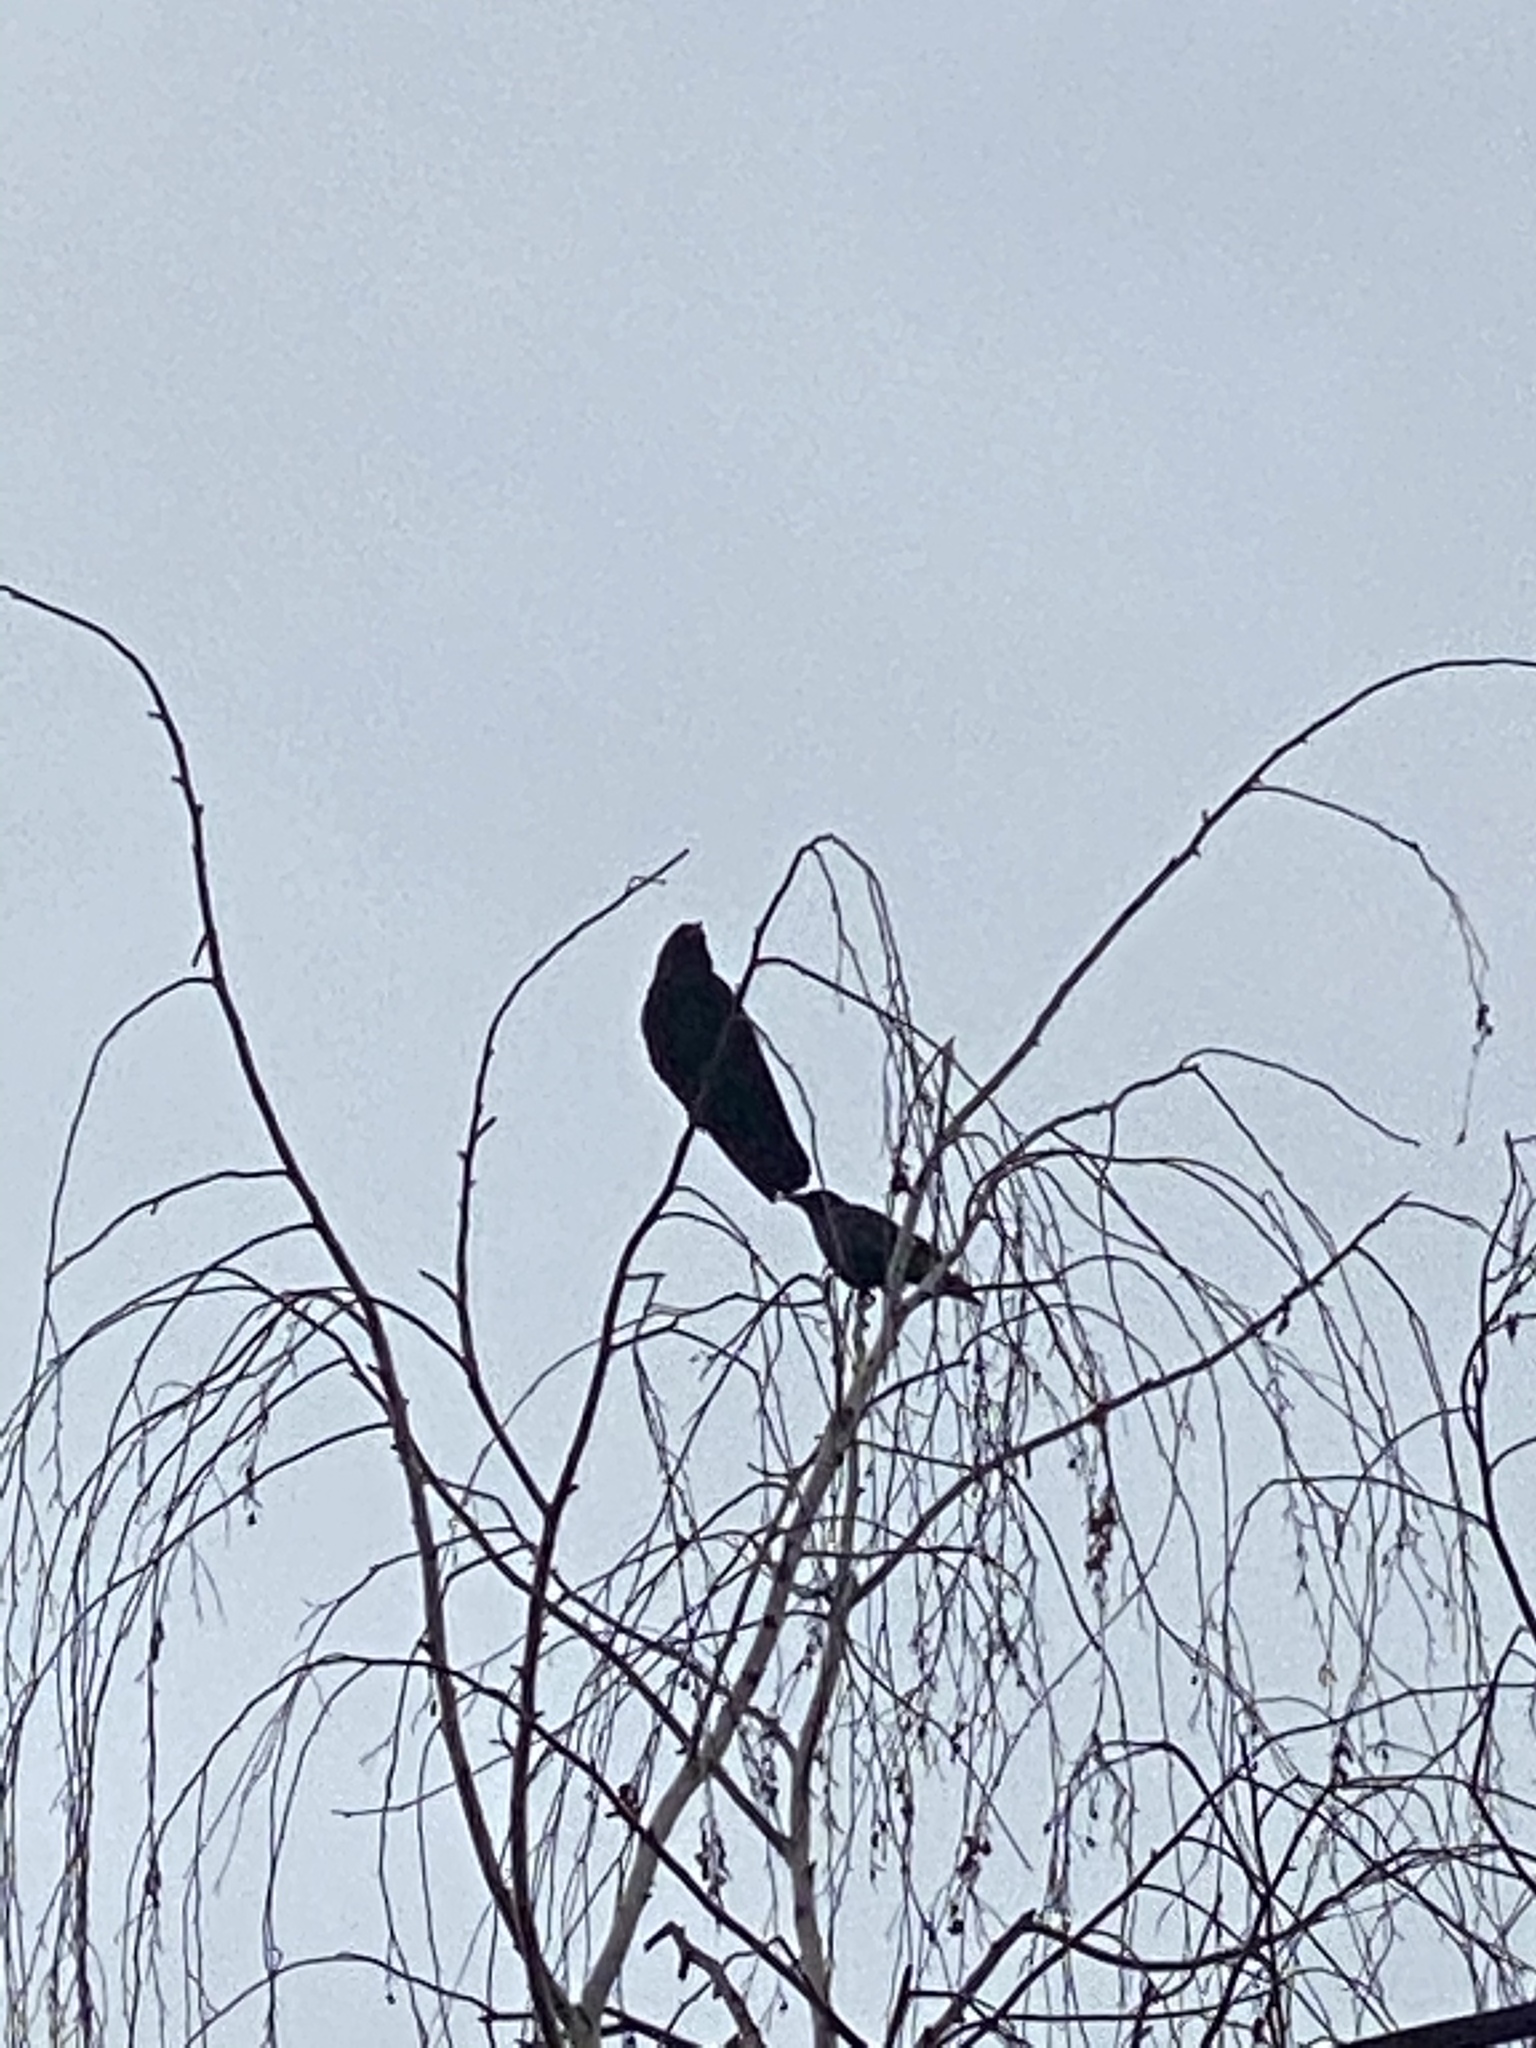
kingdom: Animalia
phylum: Chordata
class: Aves
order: Passeriformes
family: Corvidae
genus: Corvus
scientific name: Corvus brachyrhynchos
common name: American crow
